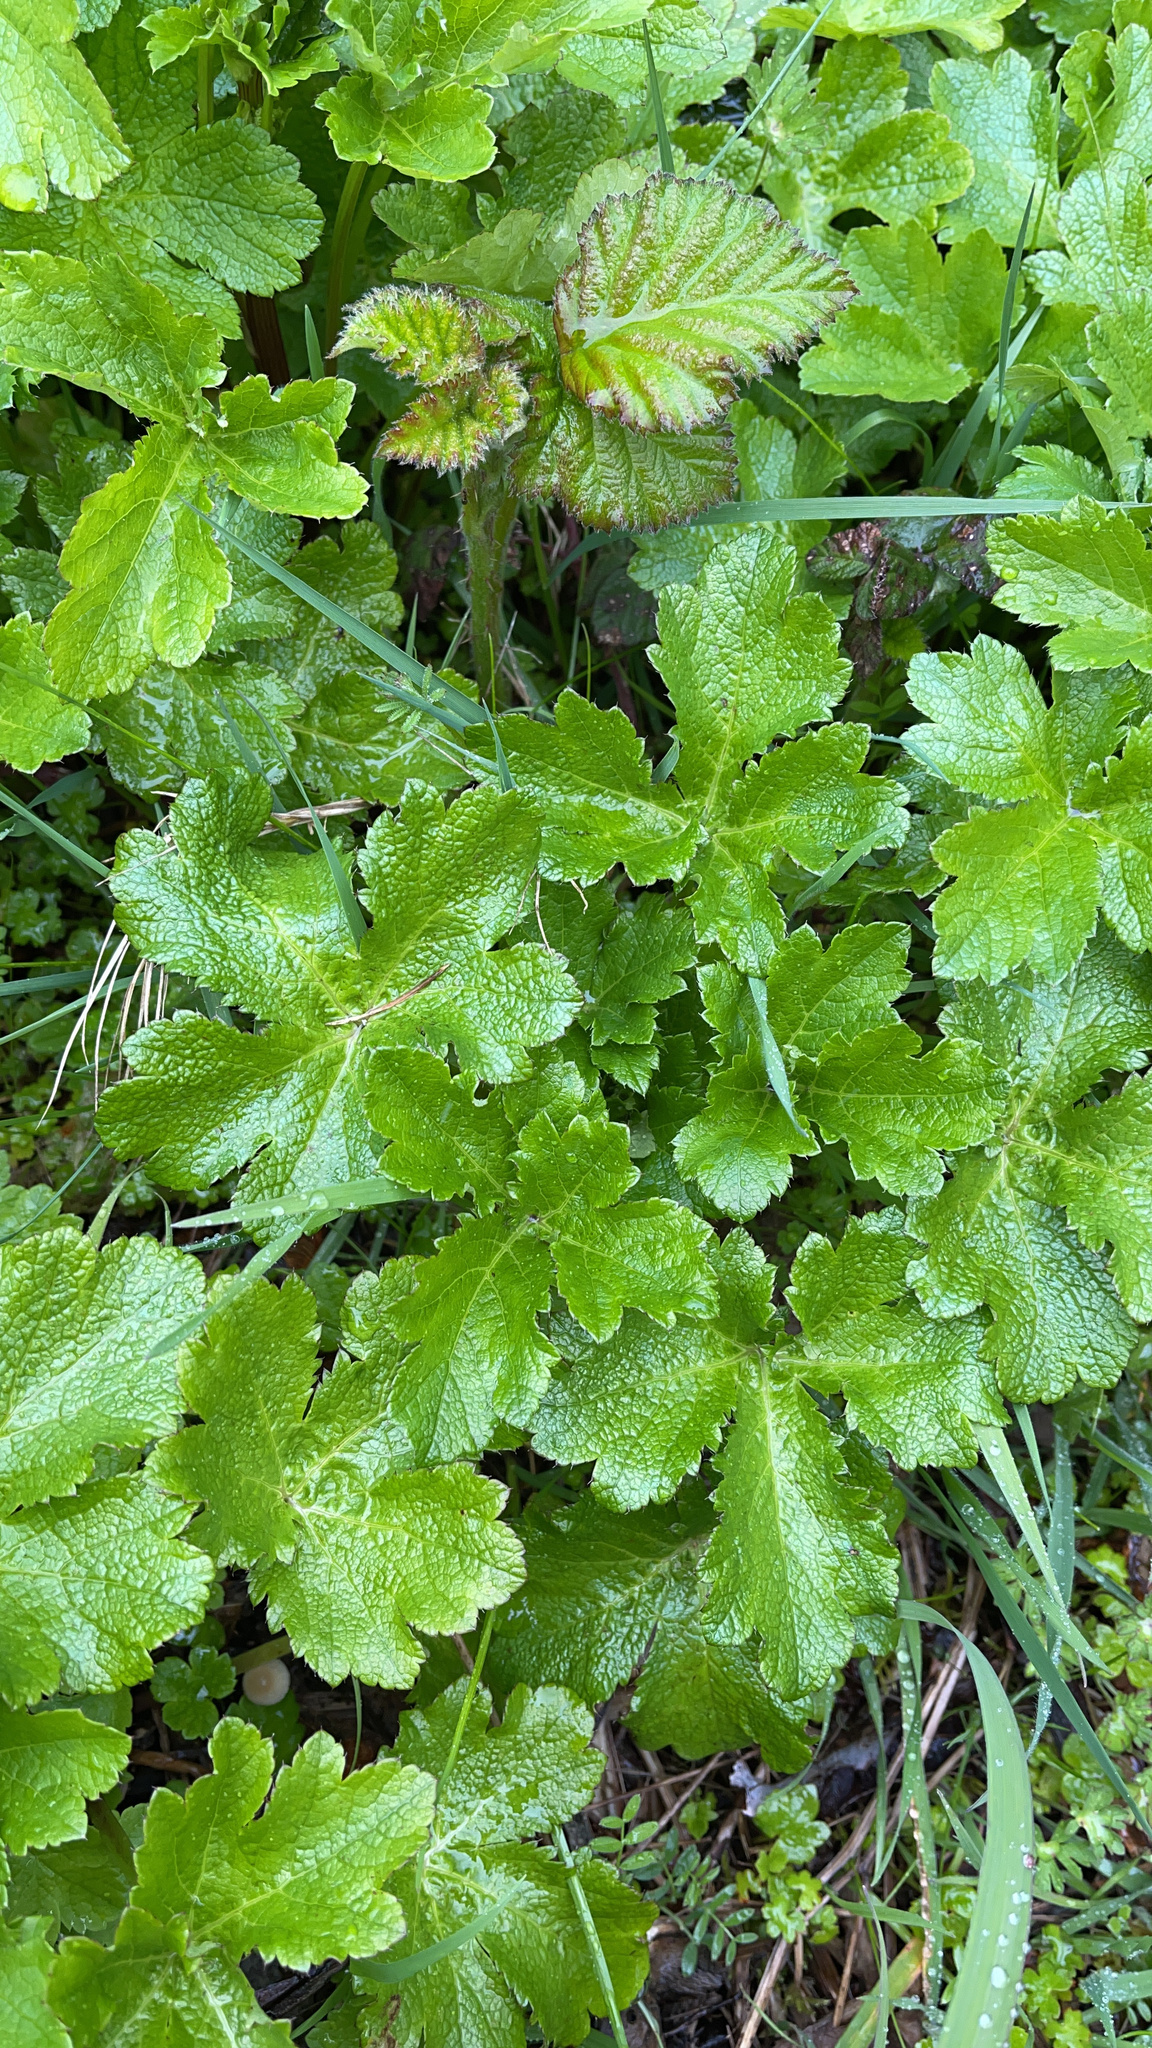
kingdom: Plantae
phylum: Tracheophyta
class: Magnoliopsida
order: Apiales
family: Apiaceae
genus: Sanicula
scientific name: Sanicula crassicaulis
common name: Western snakeroot
